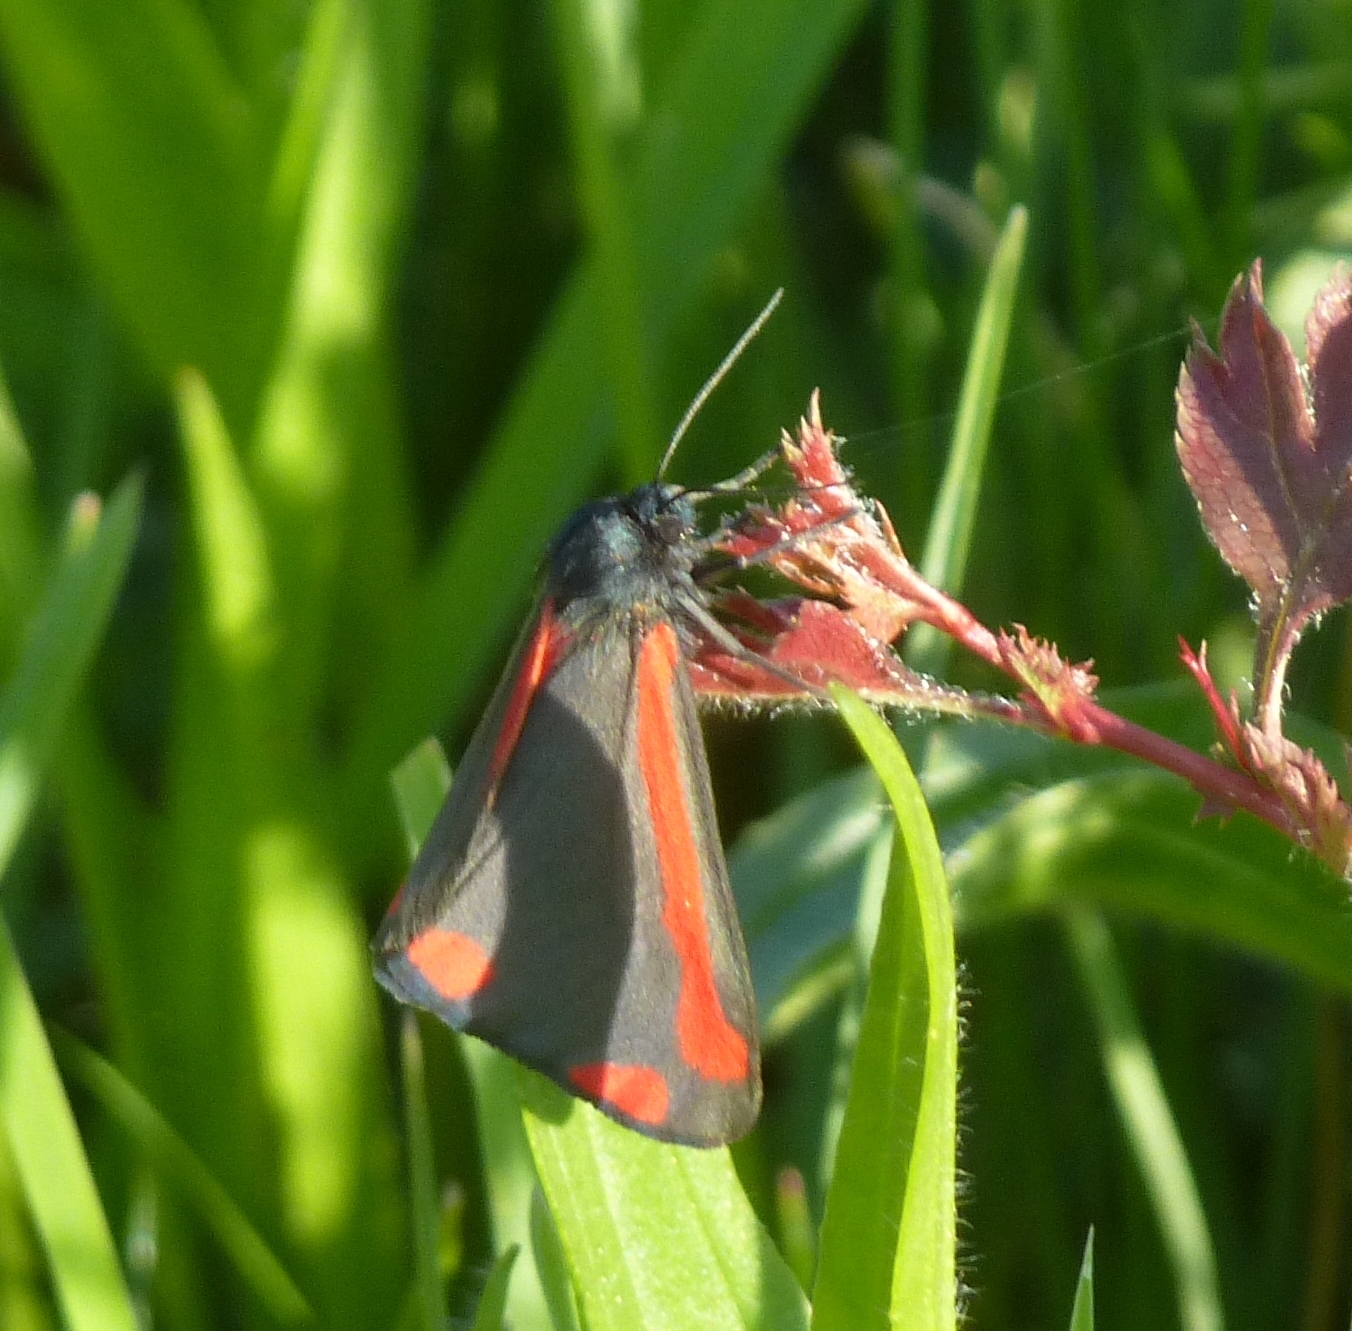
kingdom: Animalia
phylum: Arthropoda
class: Insecta
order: Lepidoptera
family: Erebidae
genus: Tyria
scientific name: Tyria jacobaeae
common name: Cinnabar
